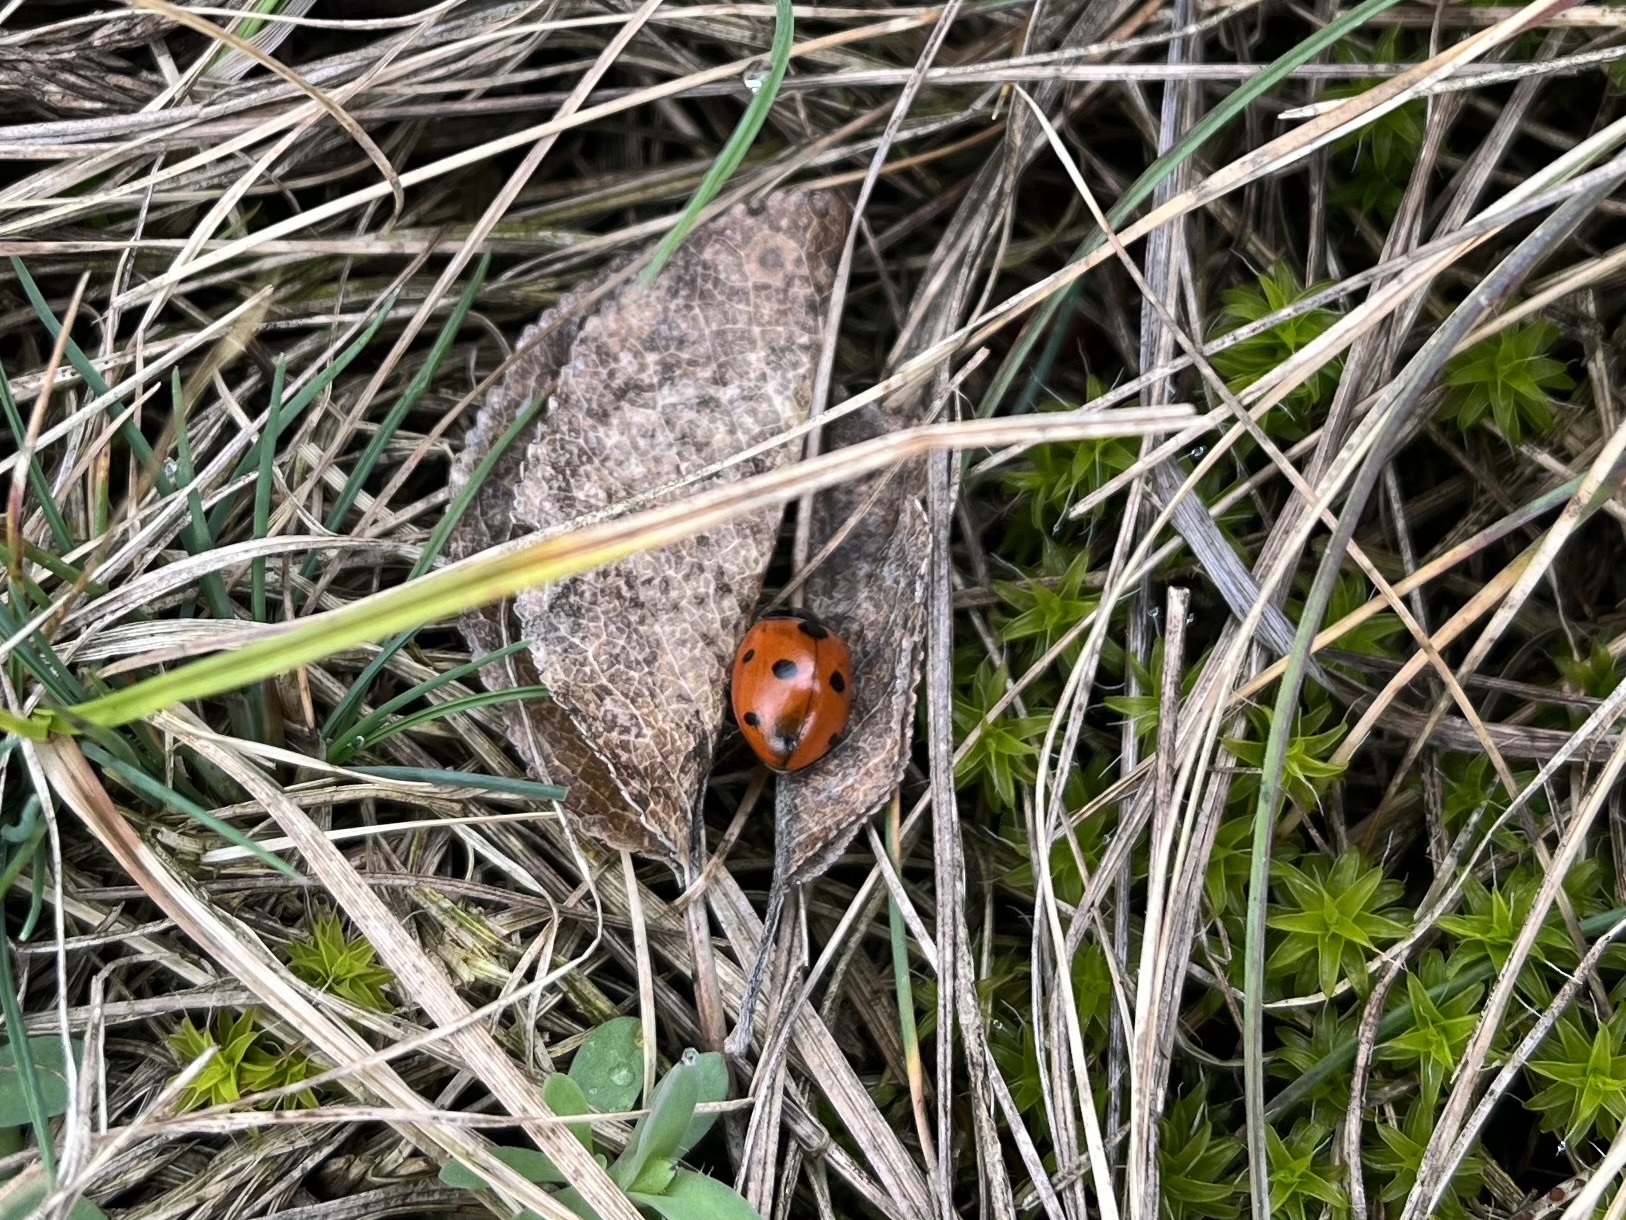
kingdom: Animalia
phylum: Arthropoda
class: Insecta
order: Coleoptera
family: Coccinellidae
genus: Coccinella
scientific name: Coccinella septempunctata
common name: Sevenspotted lady beetle
